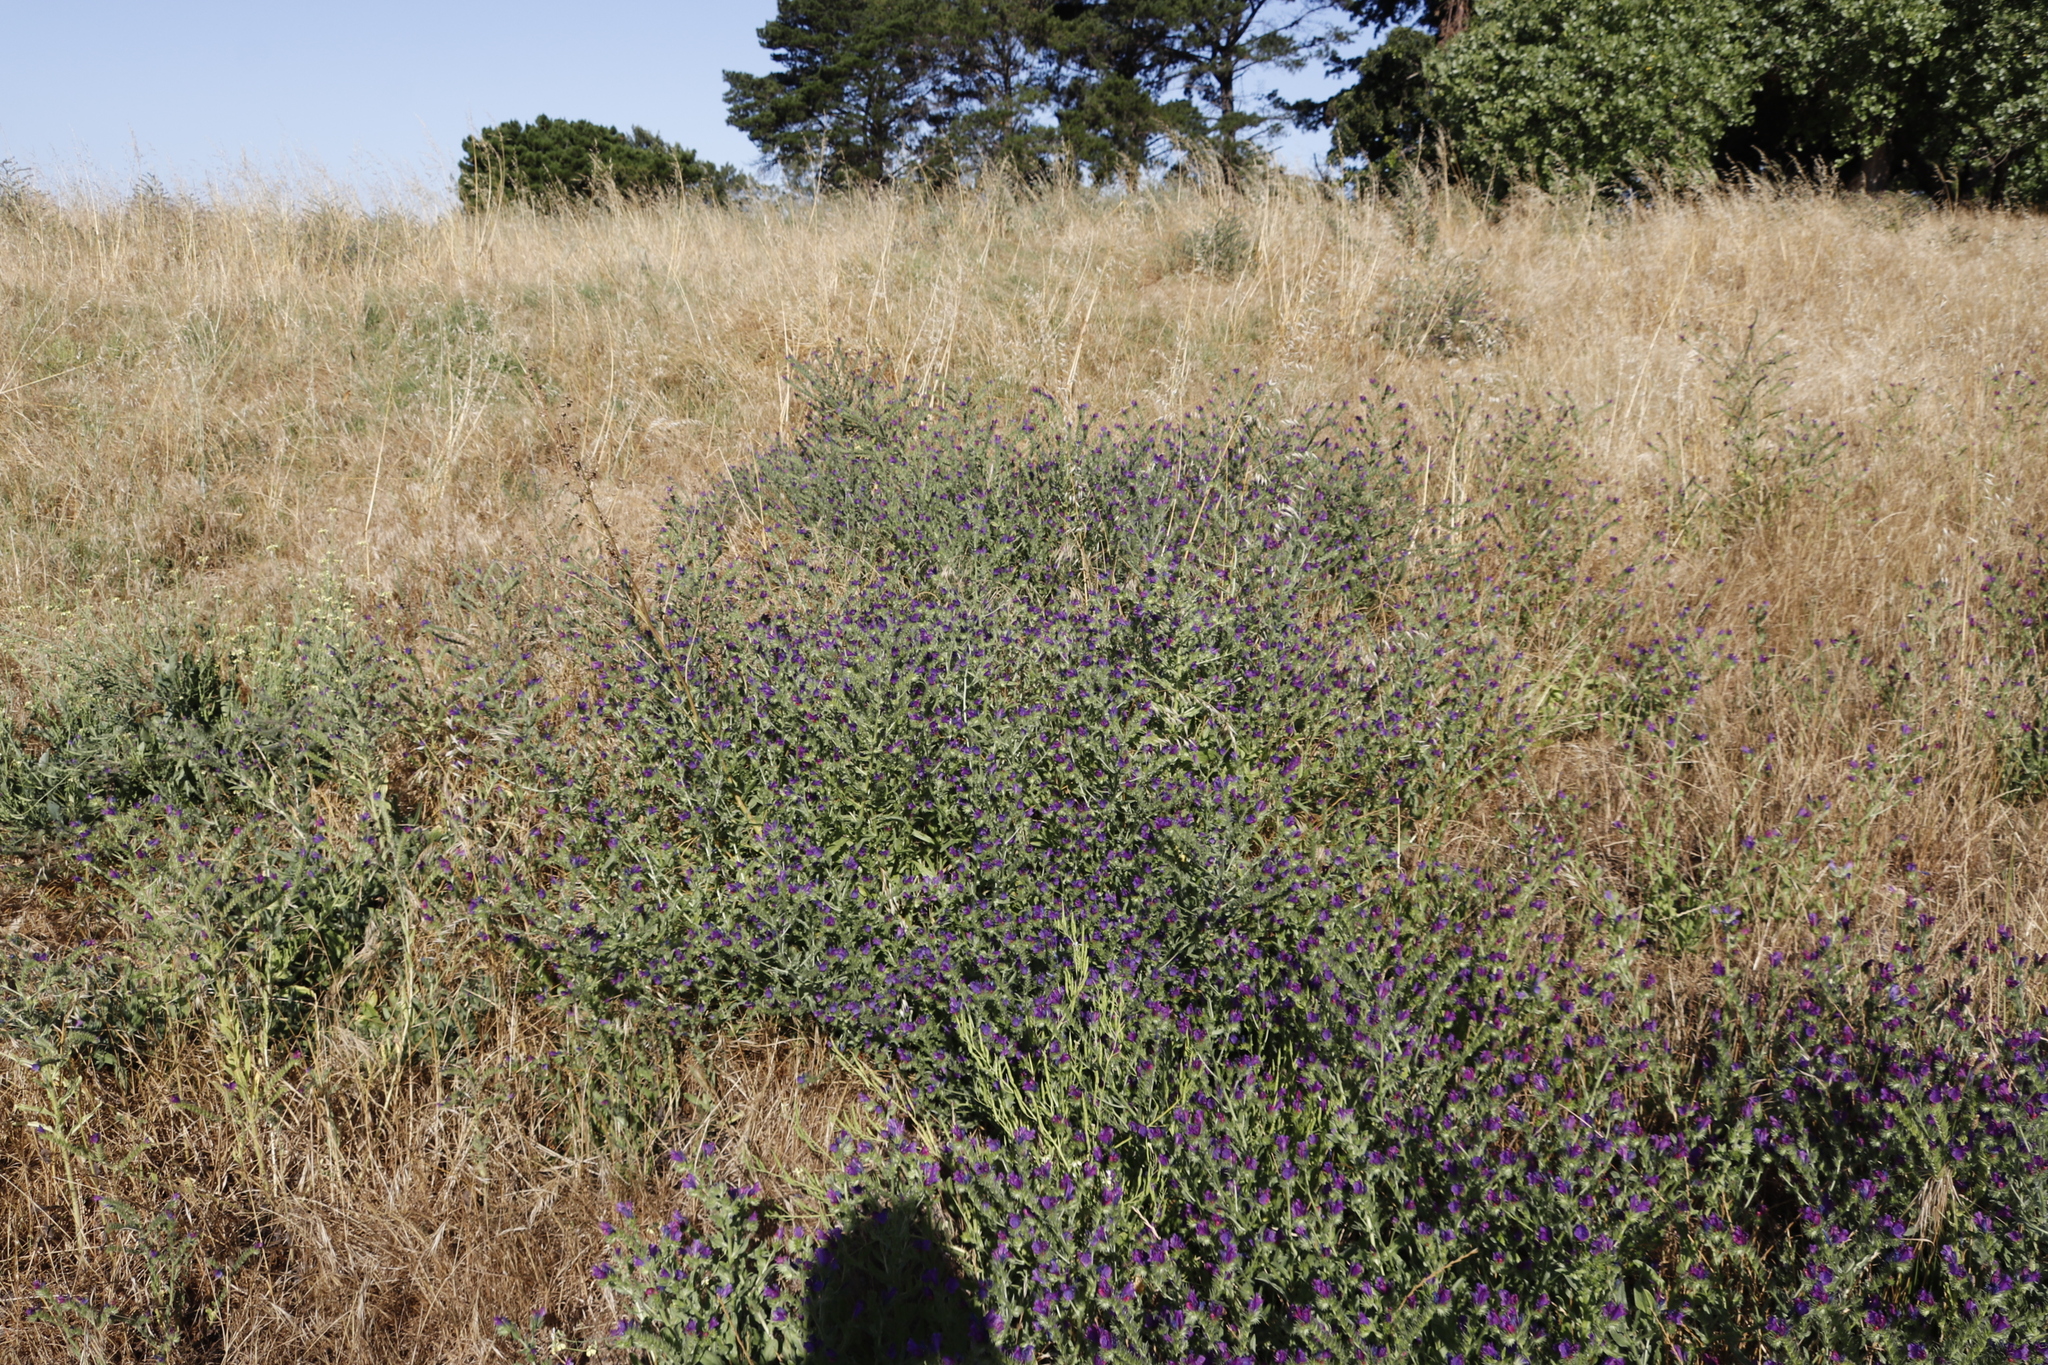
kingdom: Plantae
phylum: Tracheophyta
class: Magnoliopsida
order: Boraginales
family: Boraginaceae
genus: Echium
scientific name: Echium plantagineum
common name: Purple viper's-bugloss
